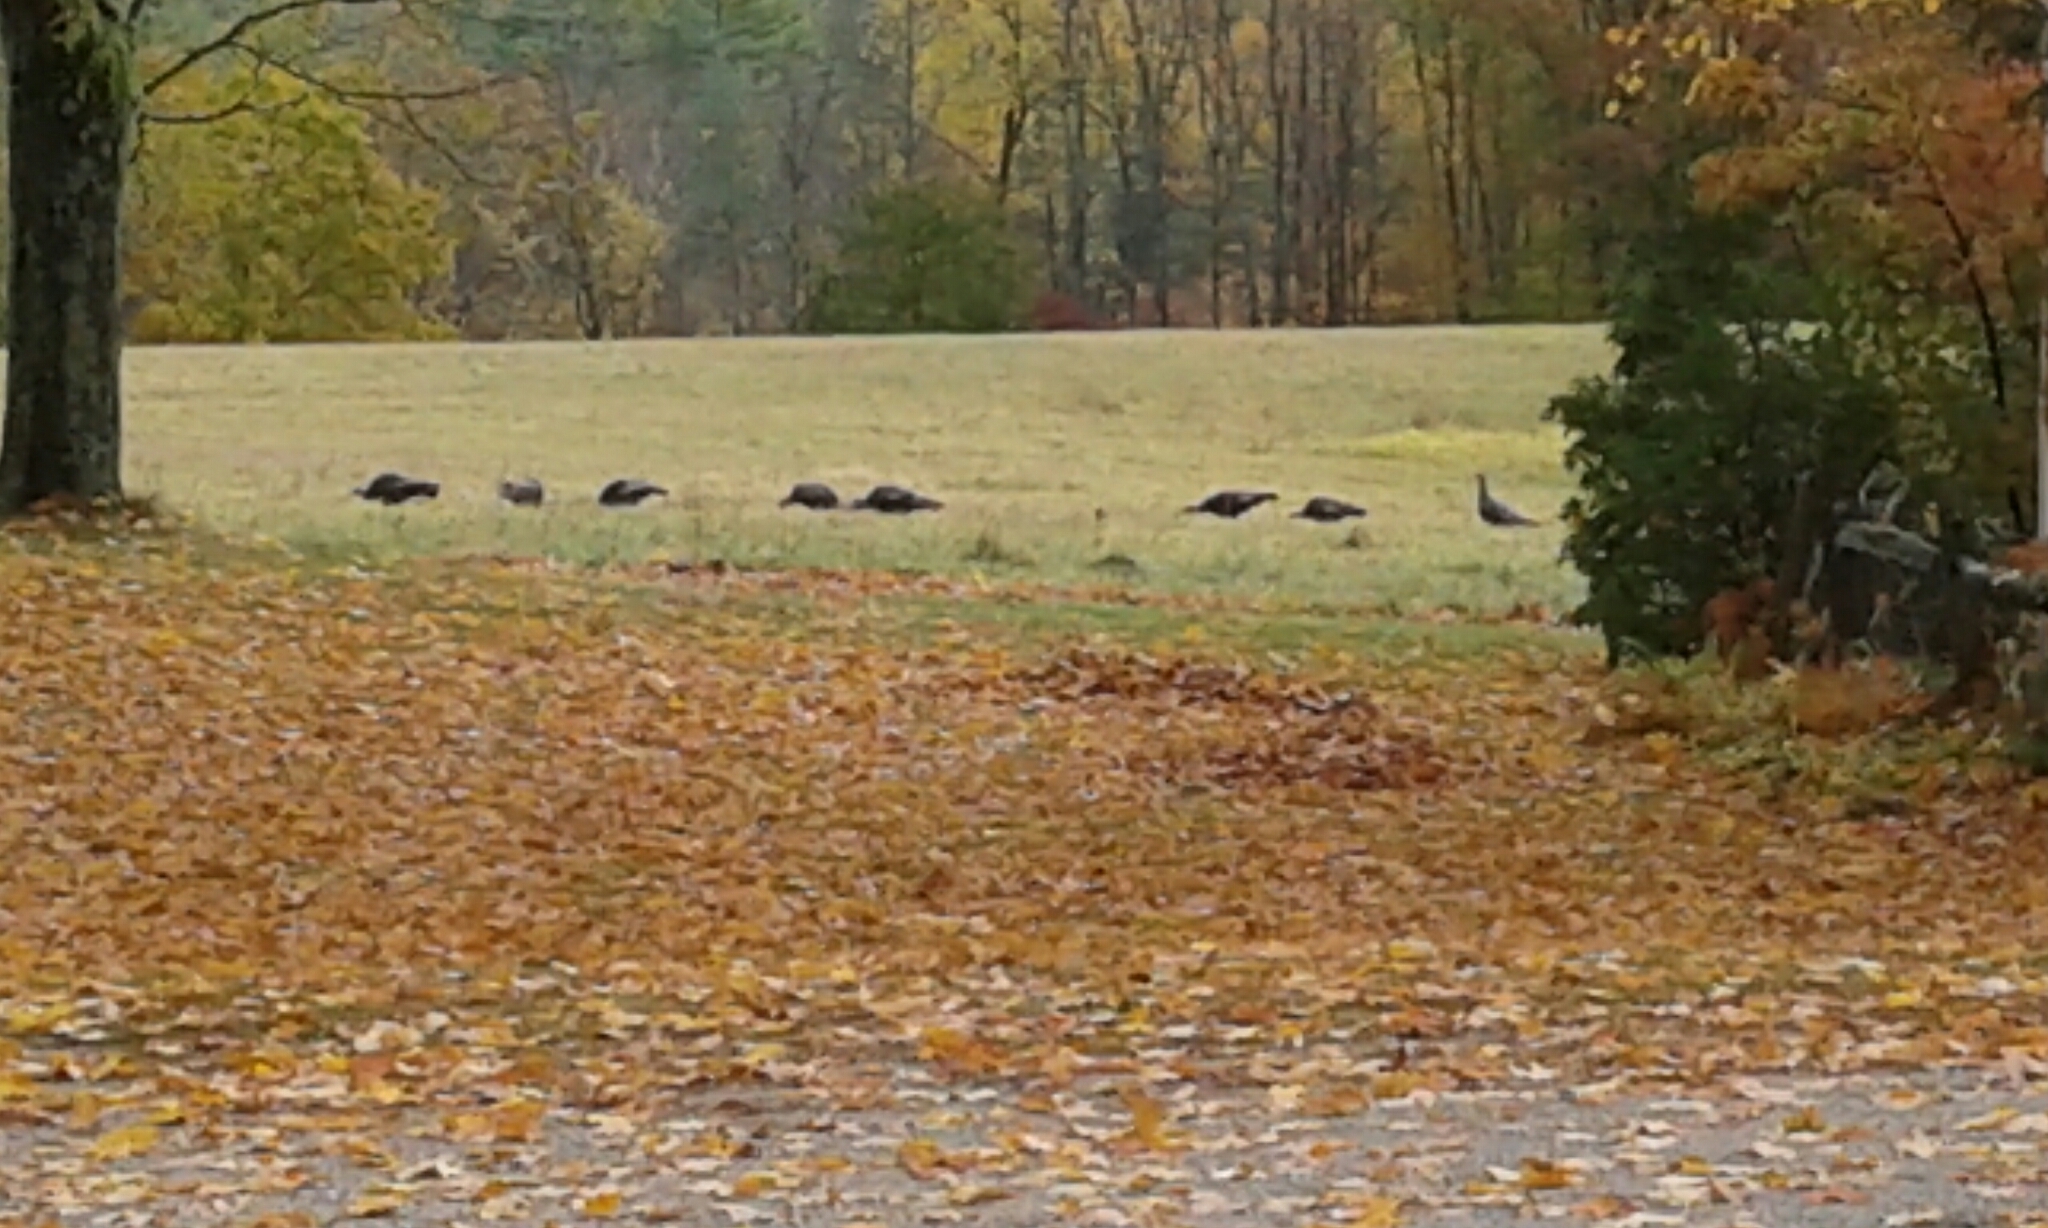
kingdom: Animalia
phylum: Chordata
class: Aves
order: Galliformes
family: Phasianidae
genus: Meleagris
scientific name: Meleagris gallopavo
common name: Wild turkey
